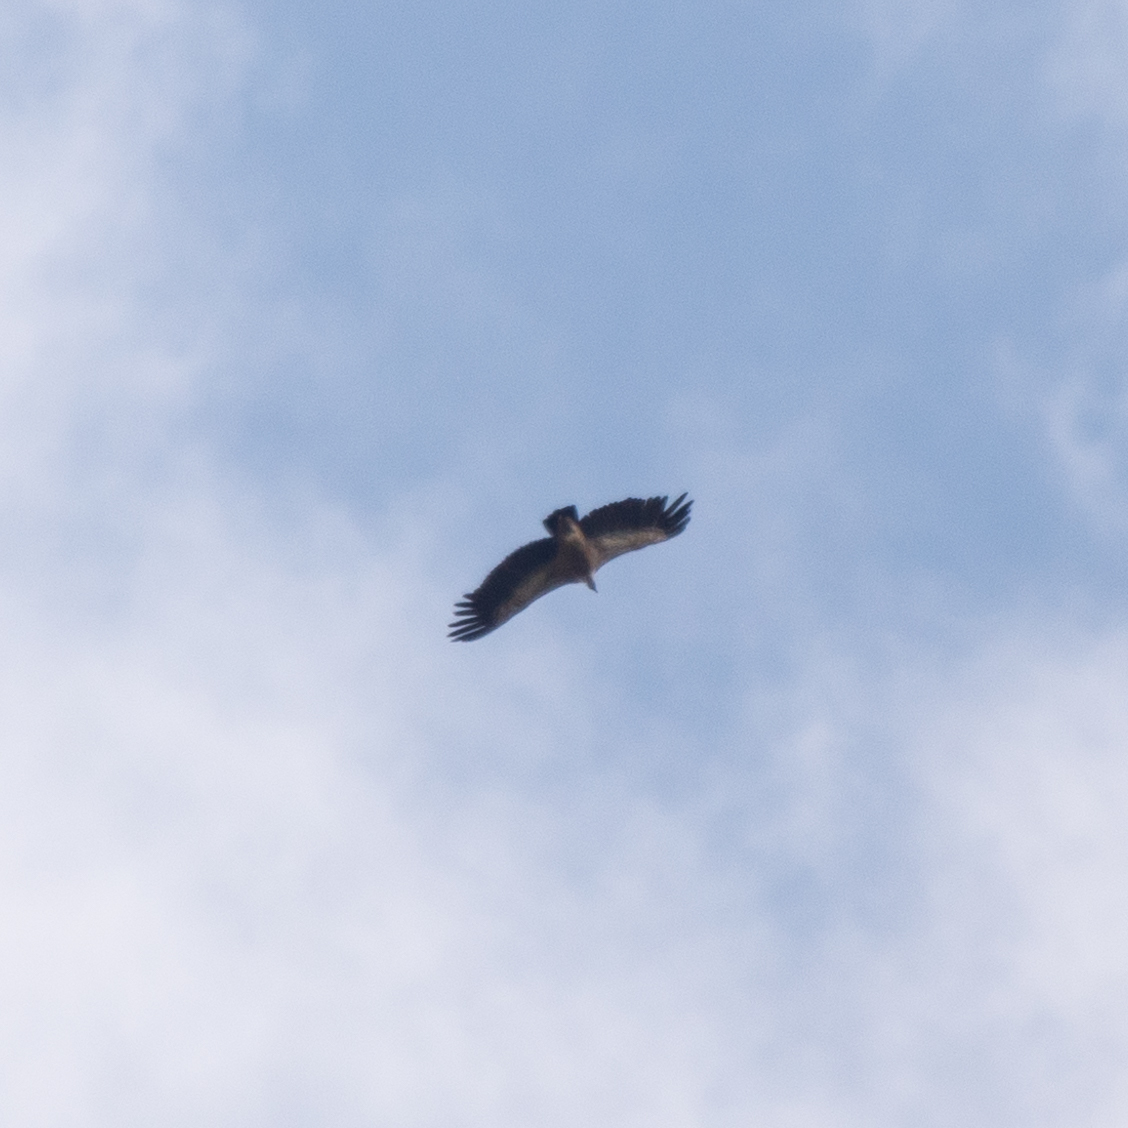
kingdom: Animalia
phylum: Chordata
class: Aves
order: Accipitriformes
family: Accipitridae
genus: Gyps
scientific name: Gyps fulvus
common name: Griffon vulture
